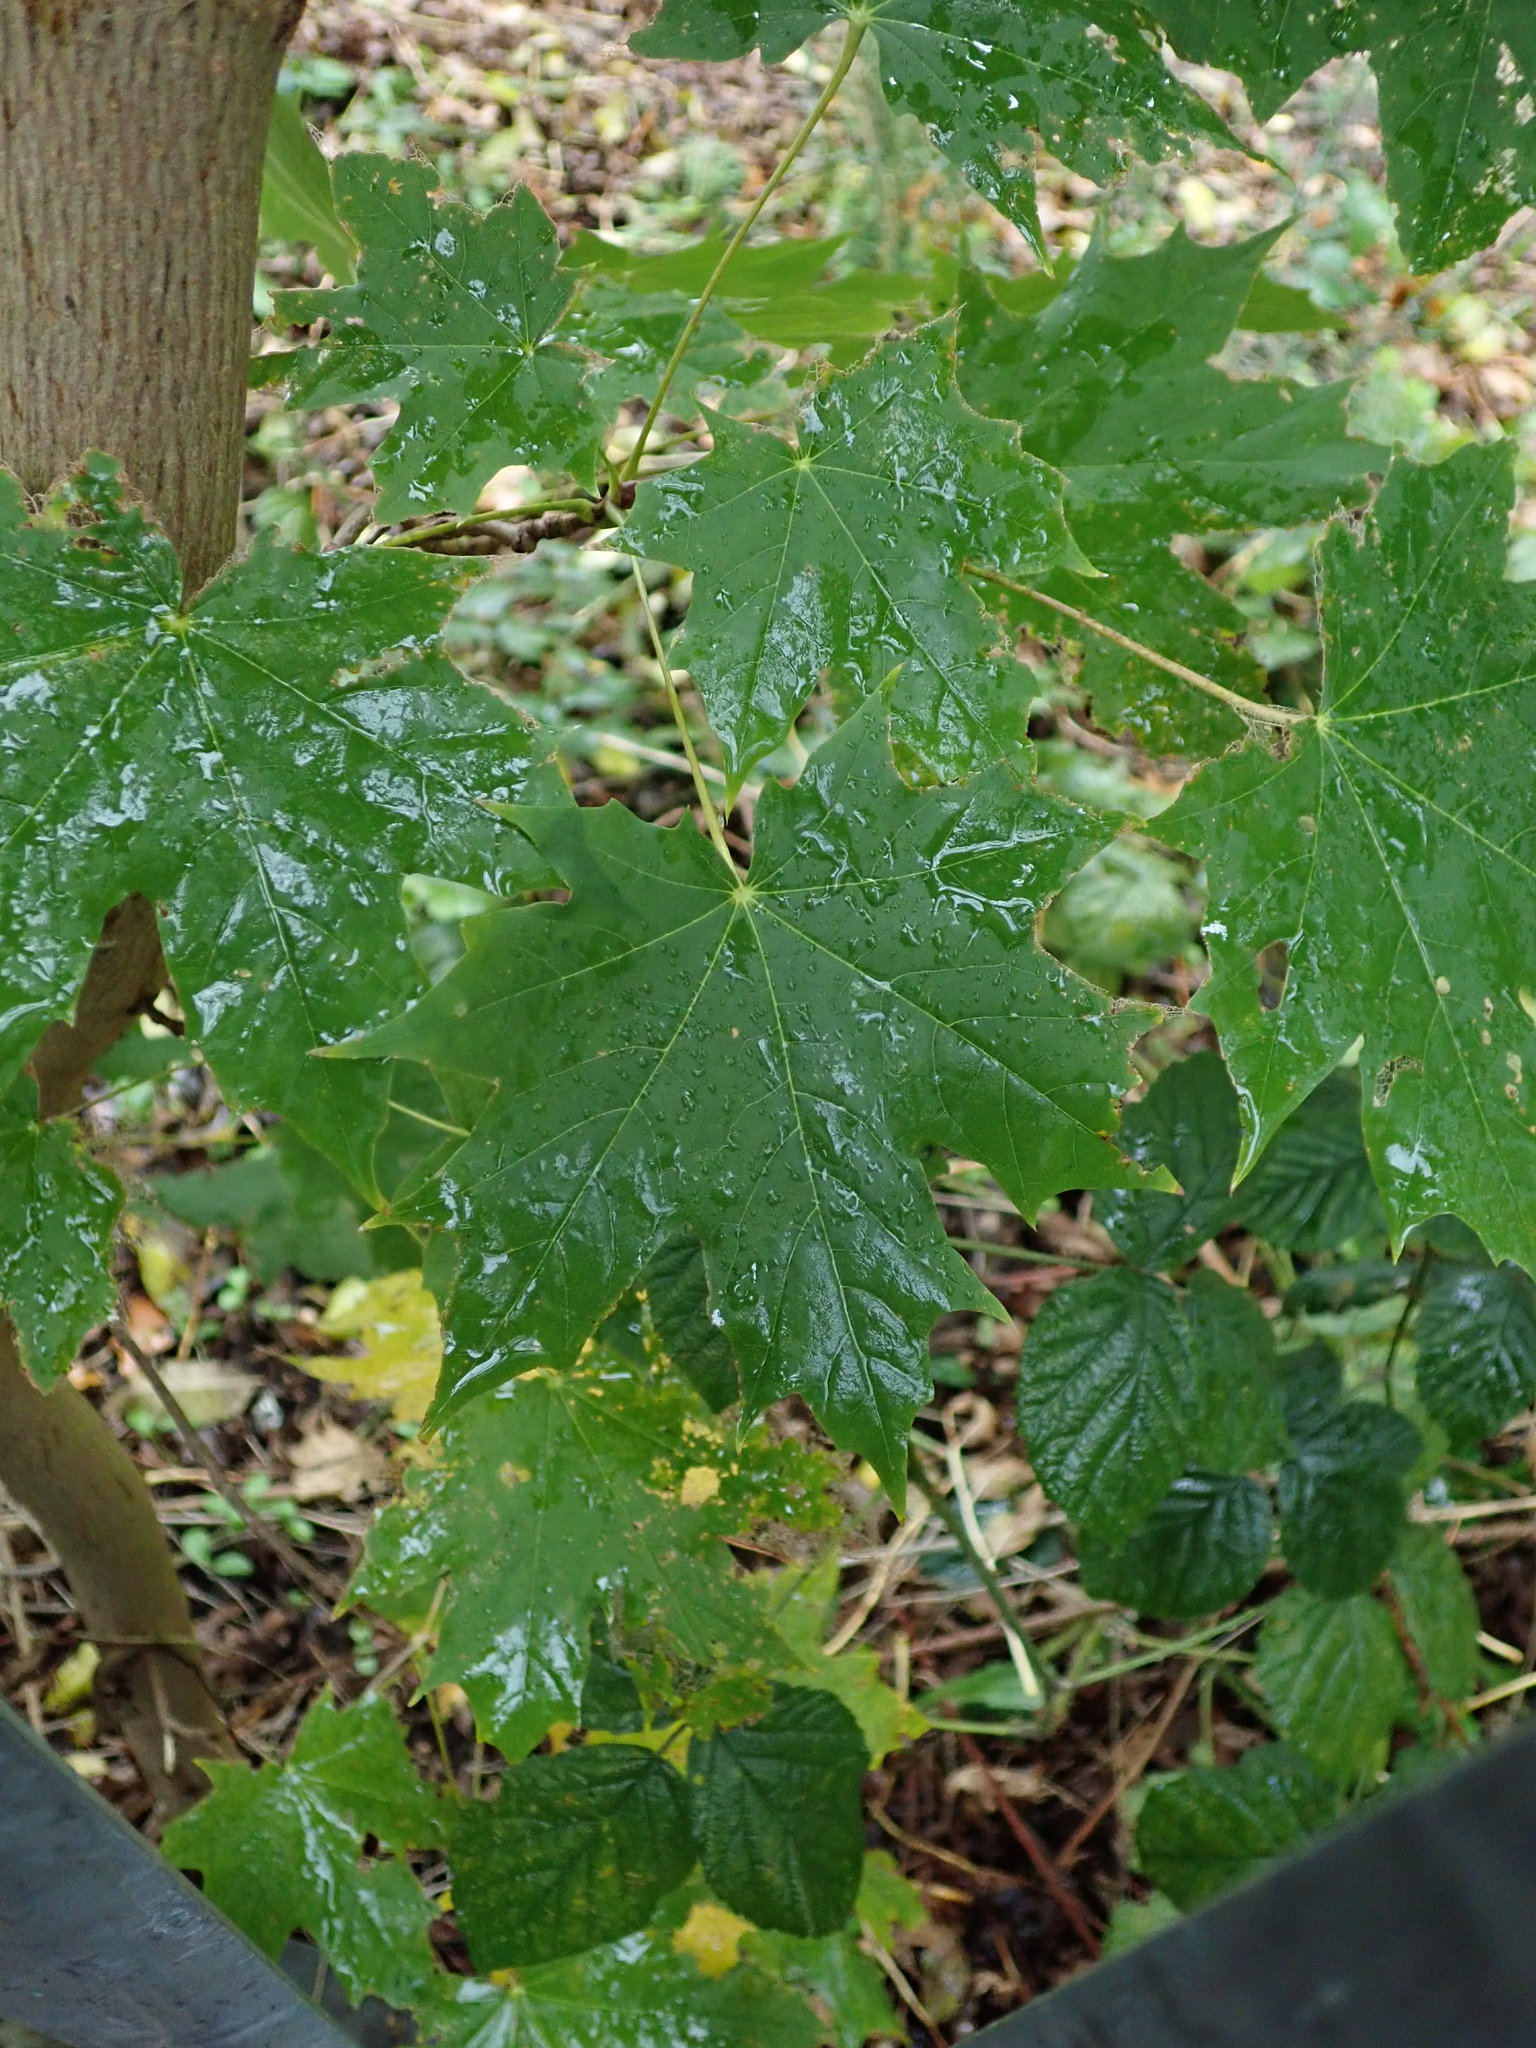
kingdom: Plantae
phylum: Tracheophyta
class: Magnoliopsida
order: Sapindales
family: Sapindaceae
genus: Acer
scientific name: Acer platanoides
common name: Norway maple
